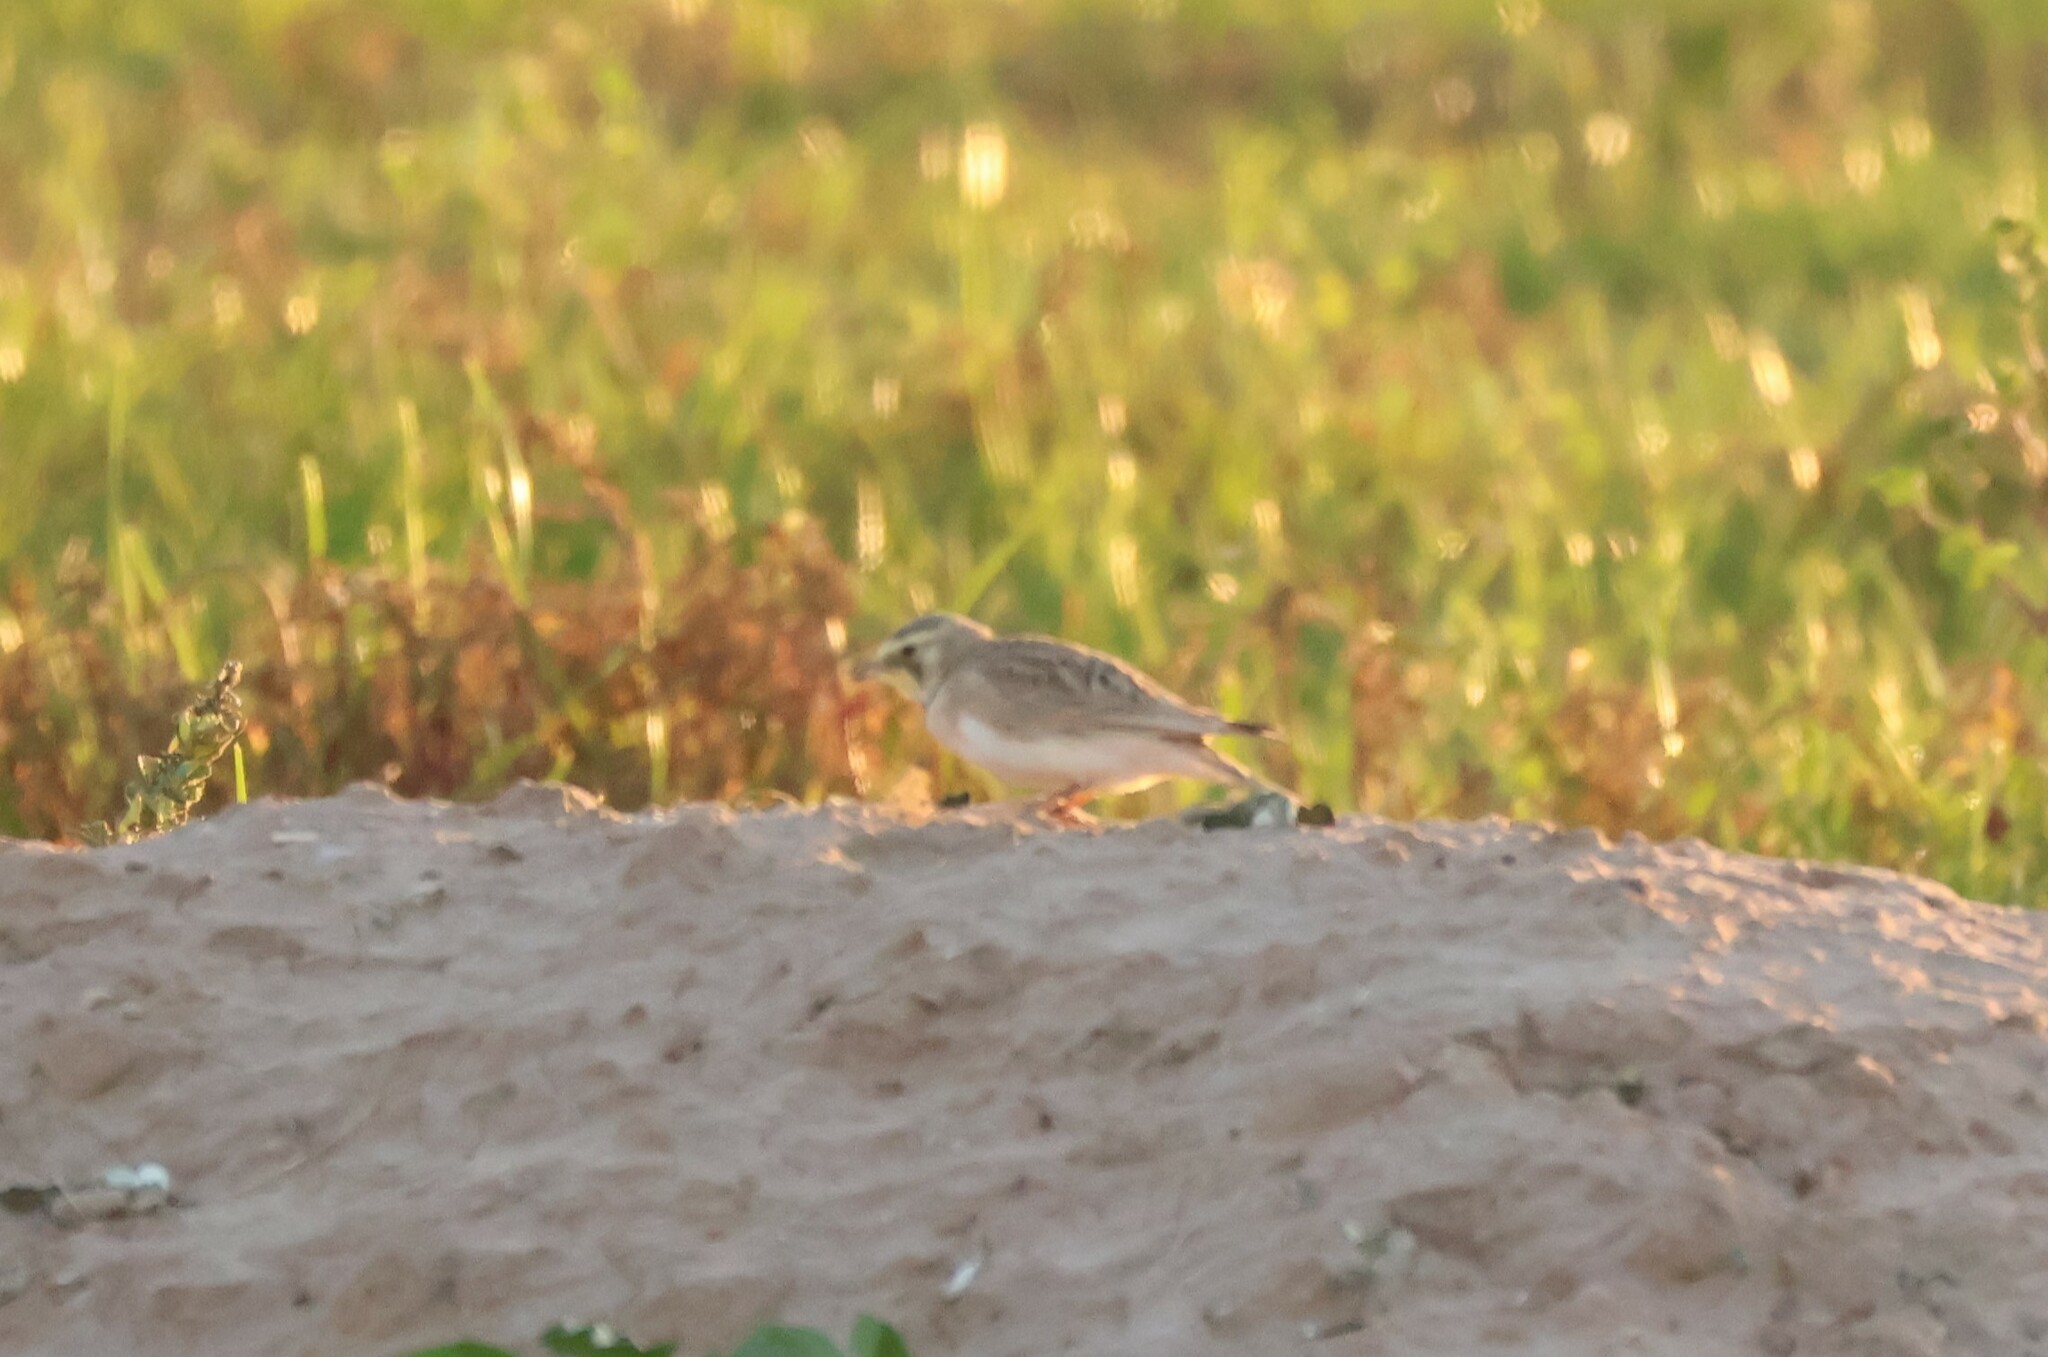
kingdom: Animalia
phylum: Chordata
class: Aves
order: Passeriformes
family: Alaudidae
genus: Eremophila
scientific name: Eremophila alpestris
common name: Horned lark
